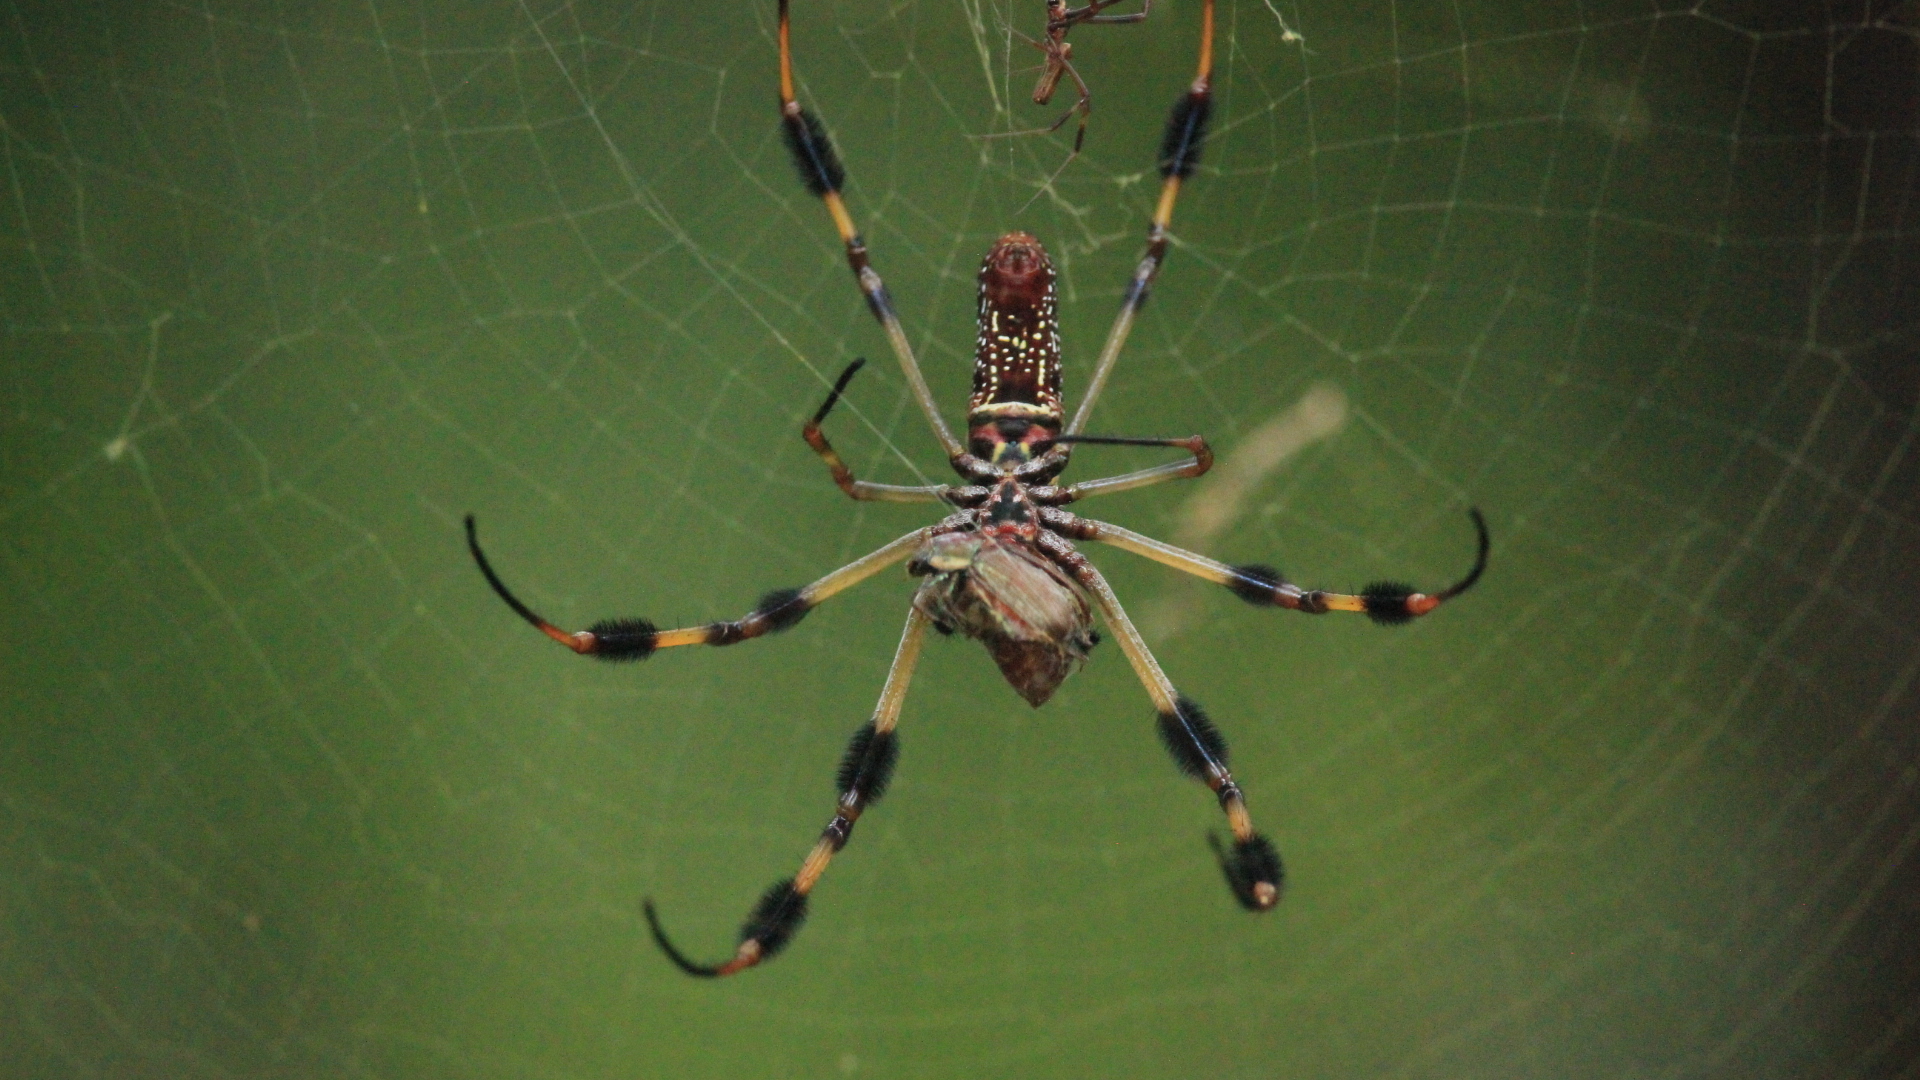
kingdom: Animalia
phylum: Arthropoda
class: Arachnida
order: Araneae
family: Araneidae
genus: Trichonephila
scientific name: Trichonephila clavipes
